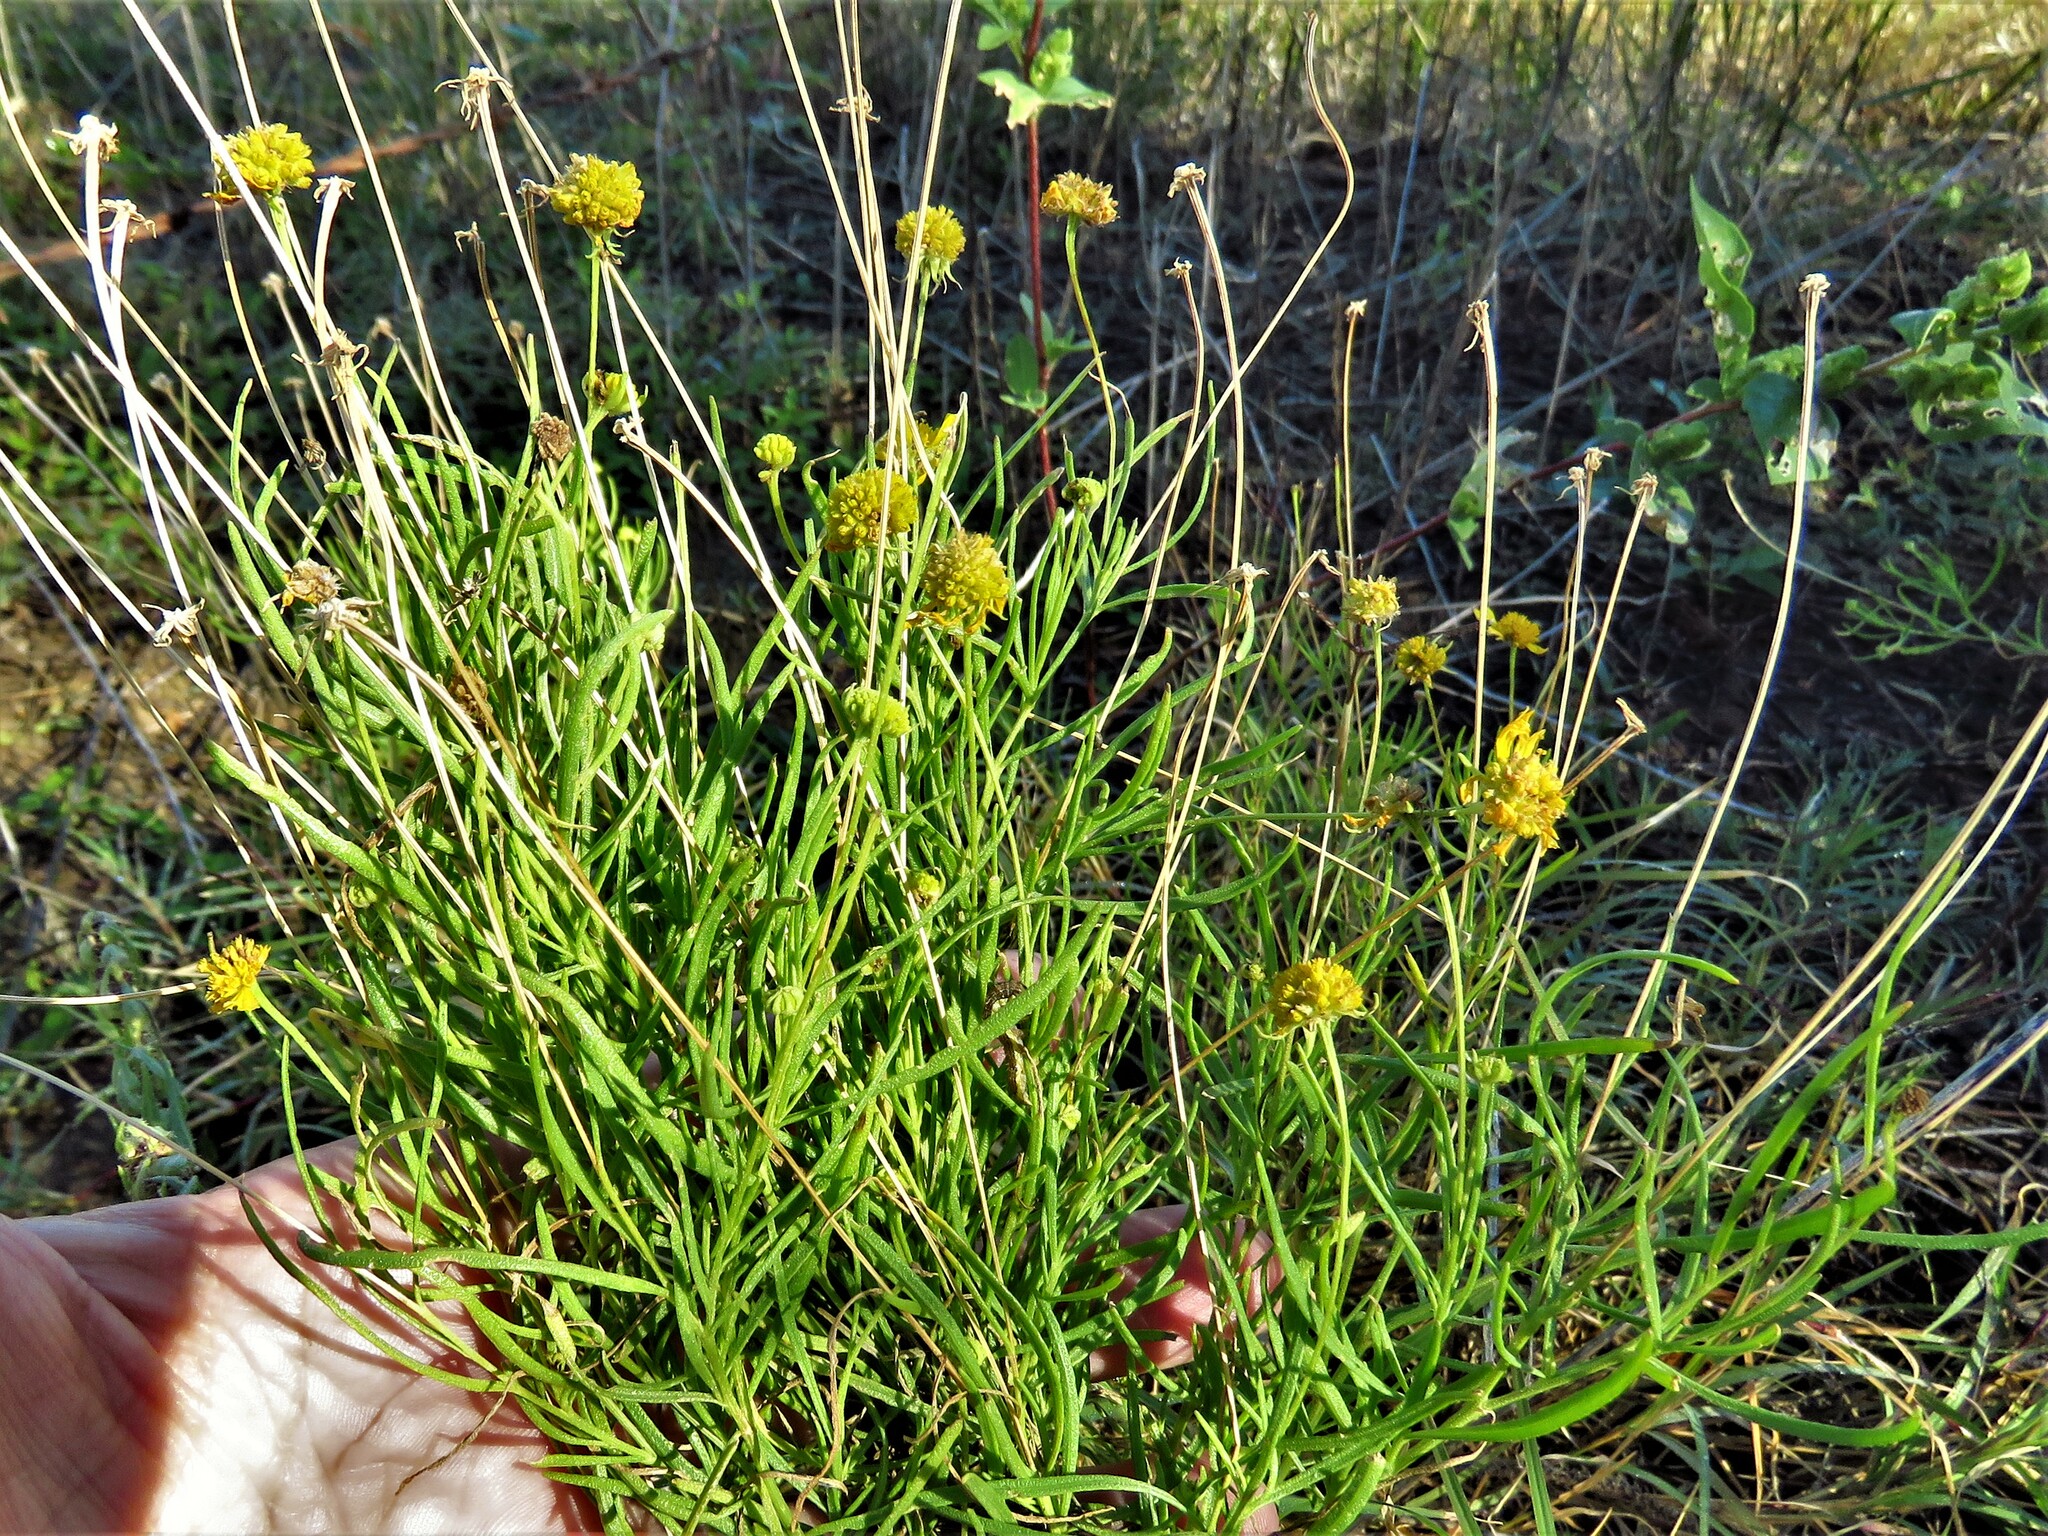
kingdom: Plantae
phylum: Tracheophyta
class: Magnoliopsida
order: Asterales
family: Asteraceae
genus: Helenium
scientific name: Helenium amarum
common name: Bitter sneezeweed
